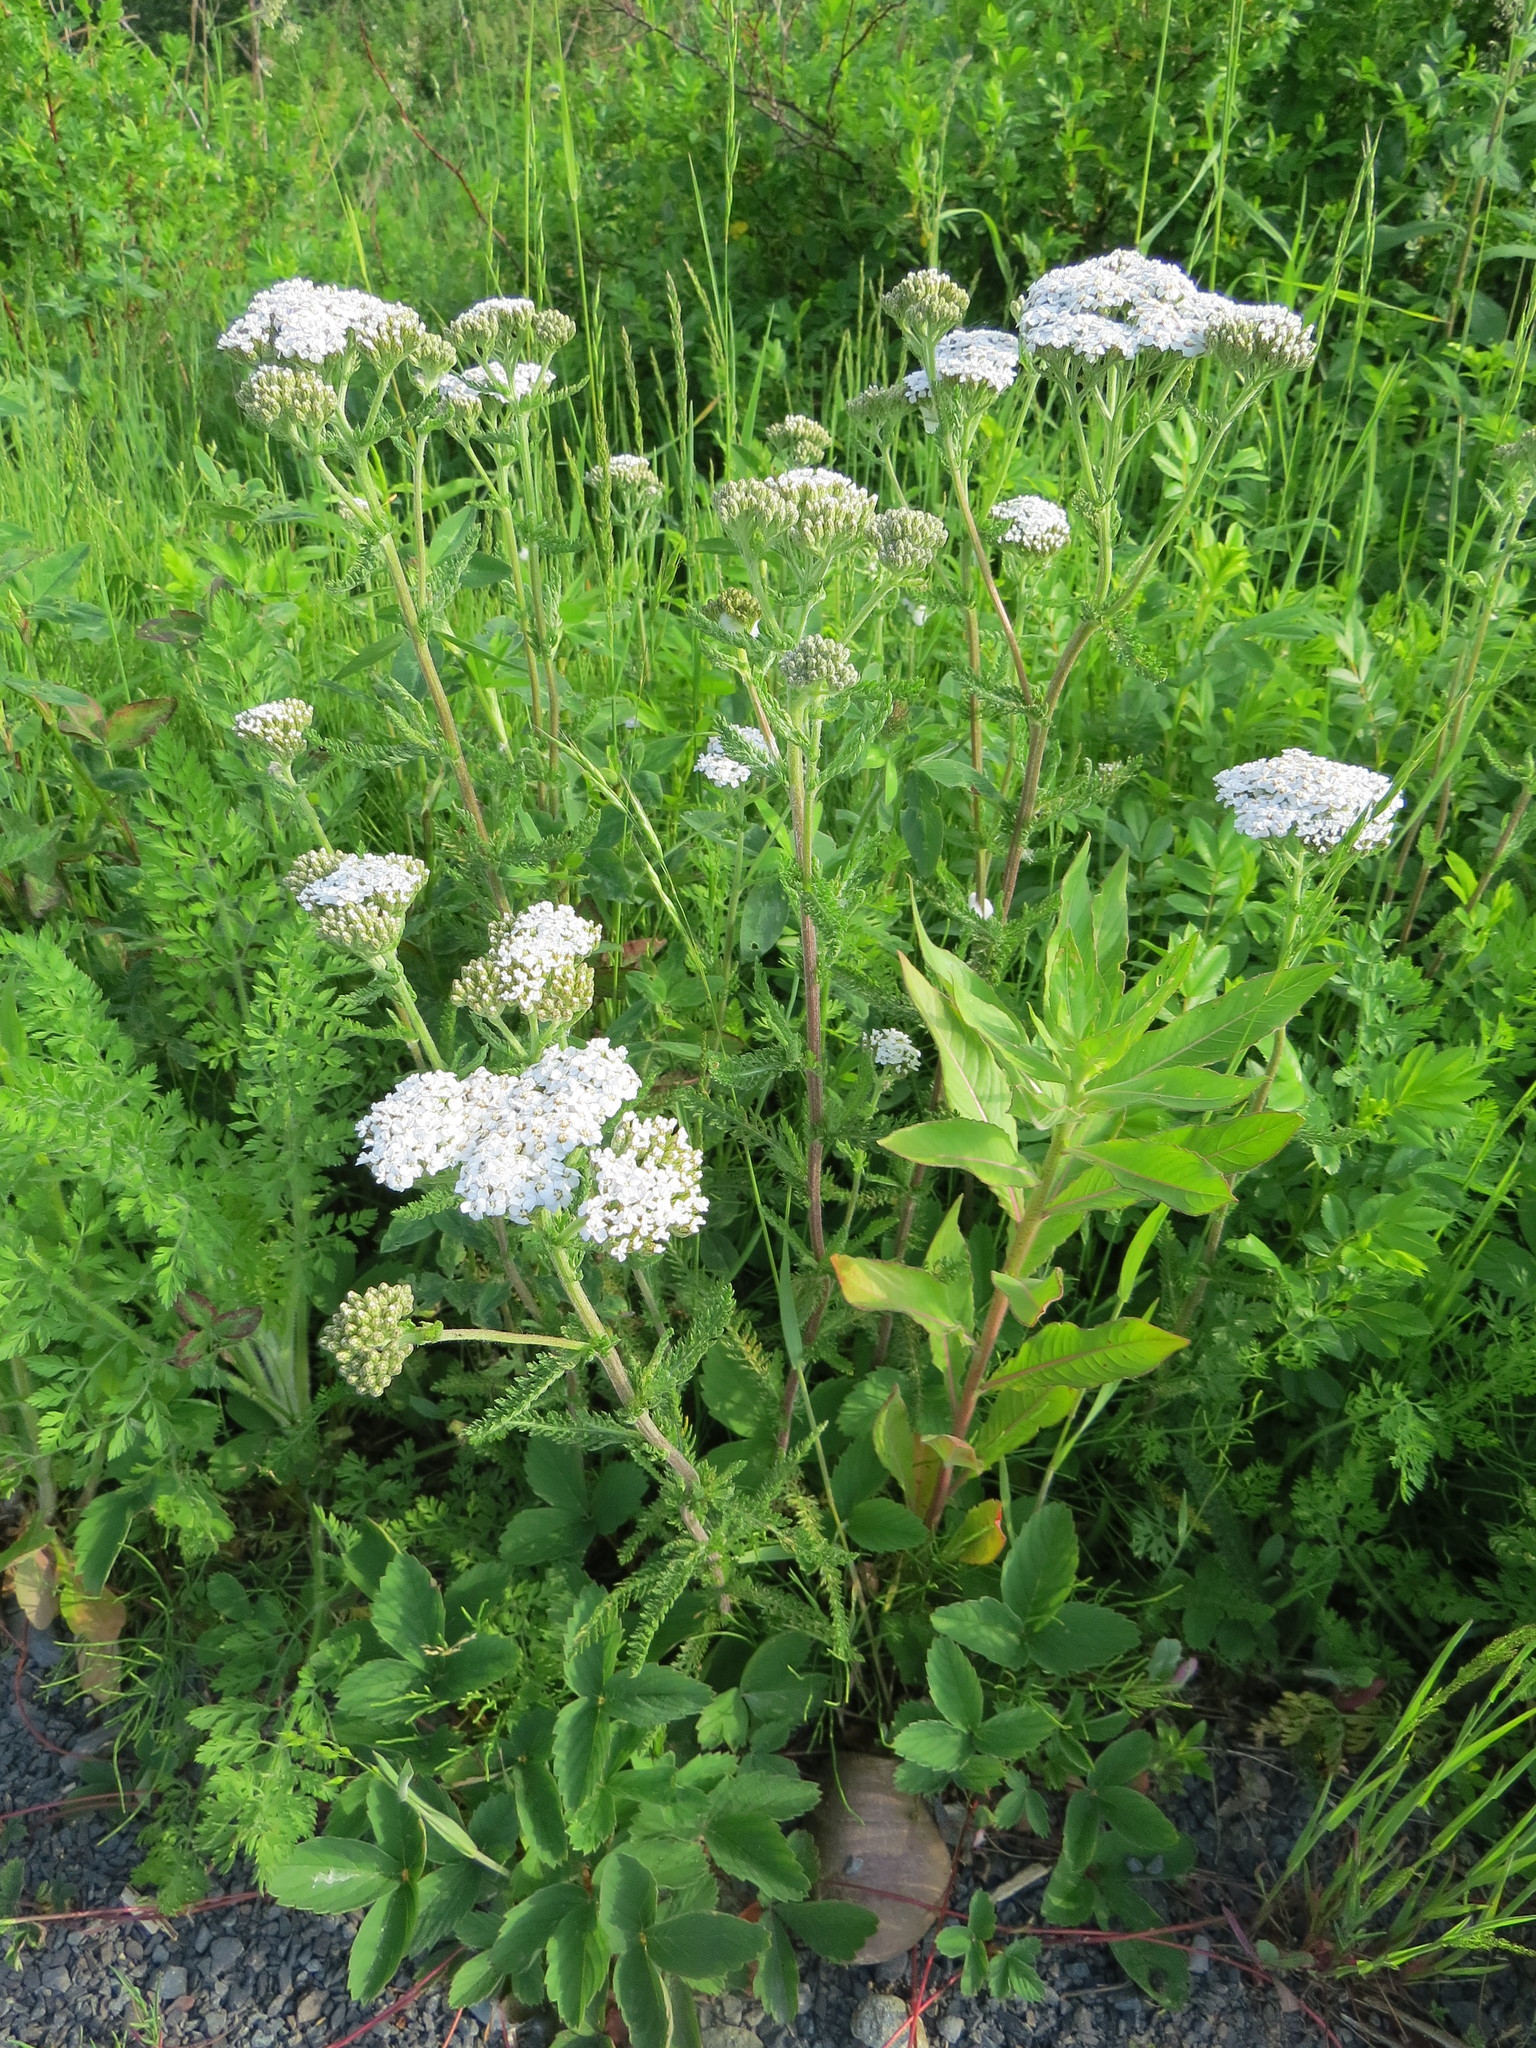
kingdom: Plantae
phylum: Tracheophyta
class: Magnoliopsida
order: Asterales
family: Asteraceae
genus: Achillea
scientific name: Achillea millefolium
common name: Yarrow
